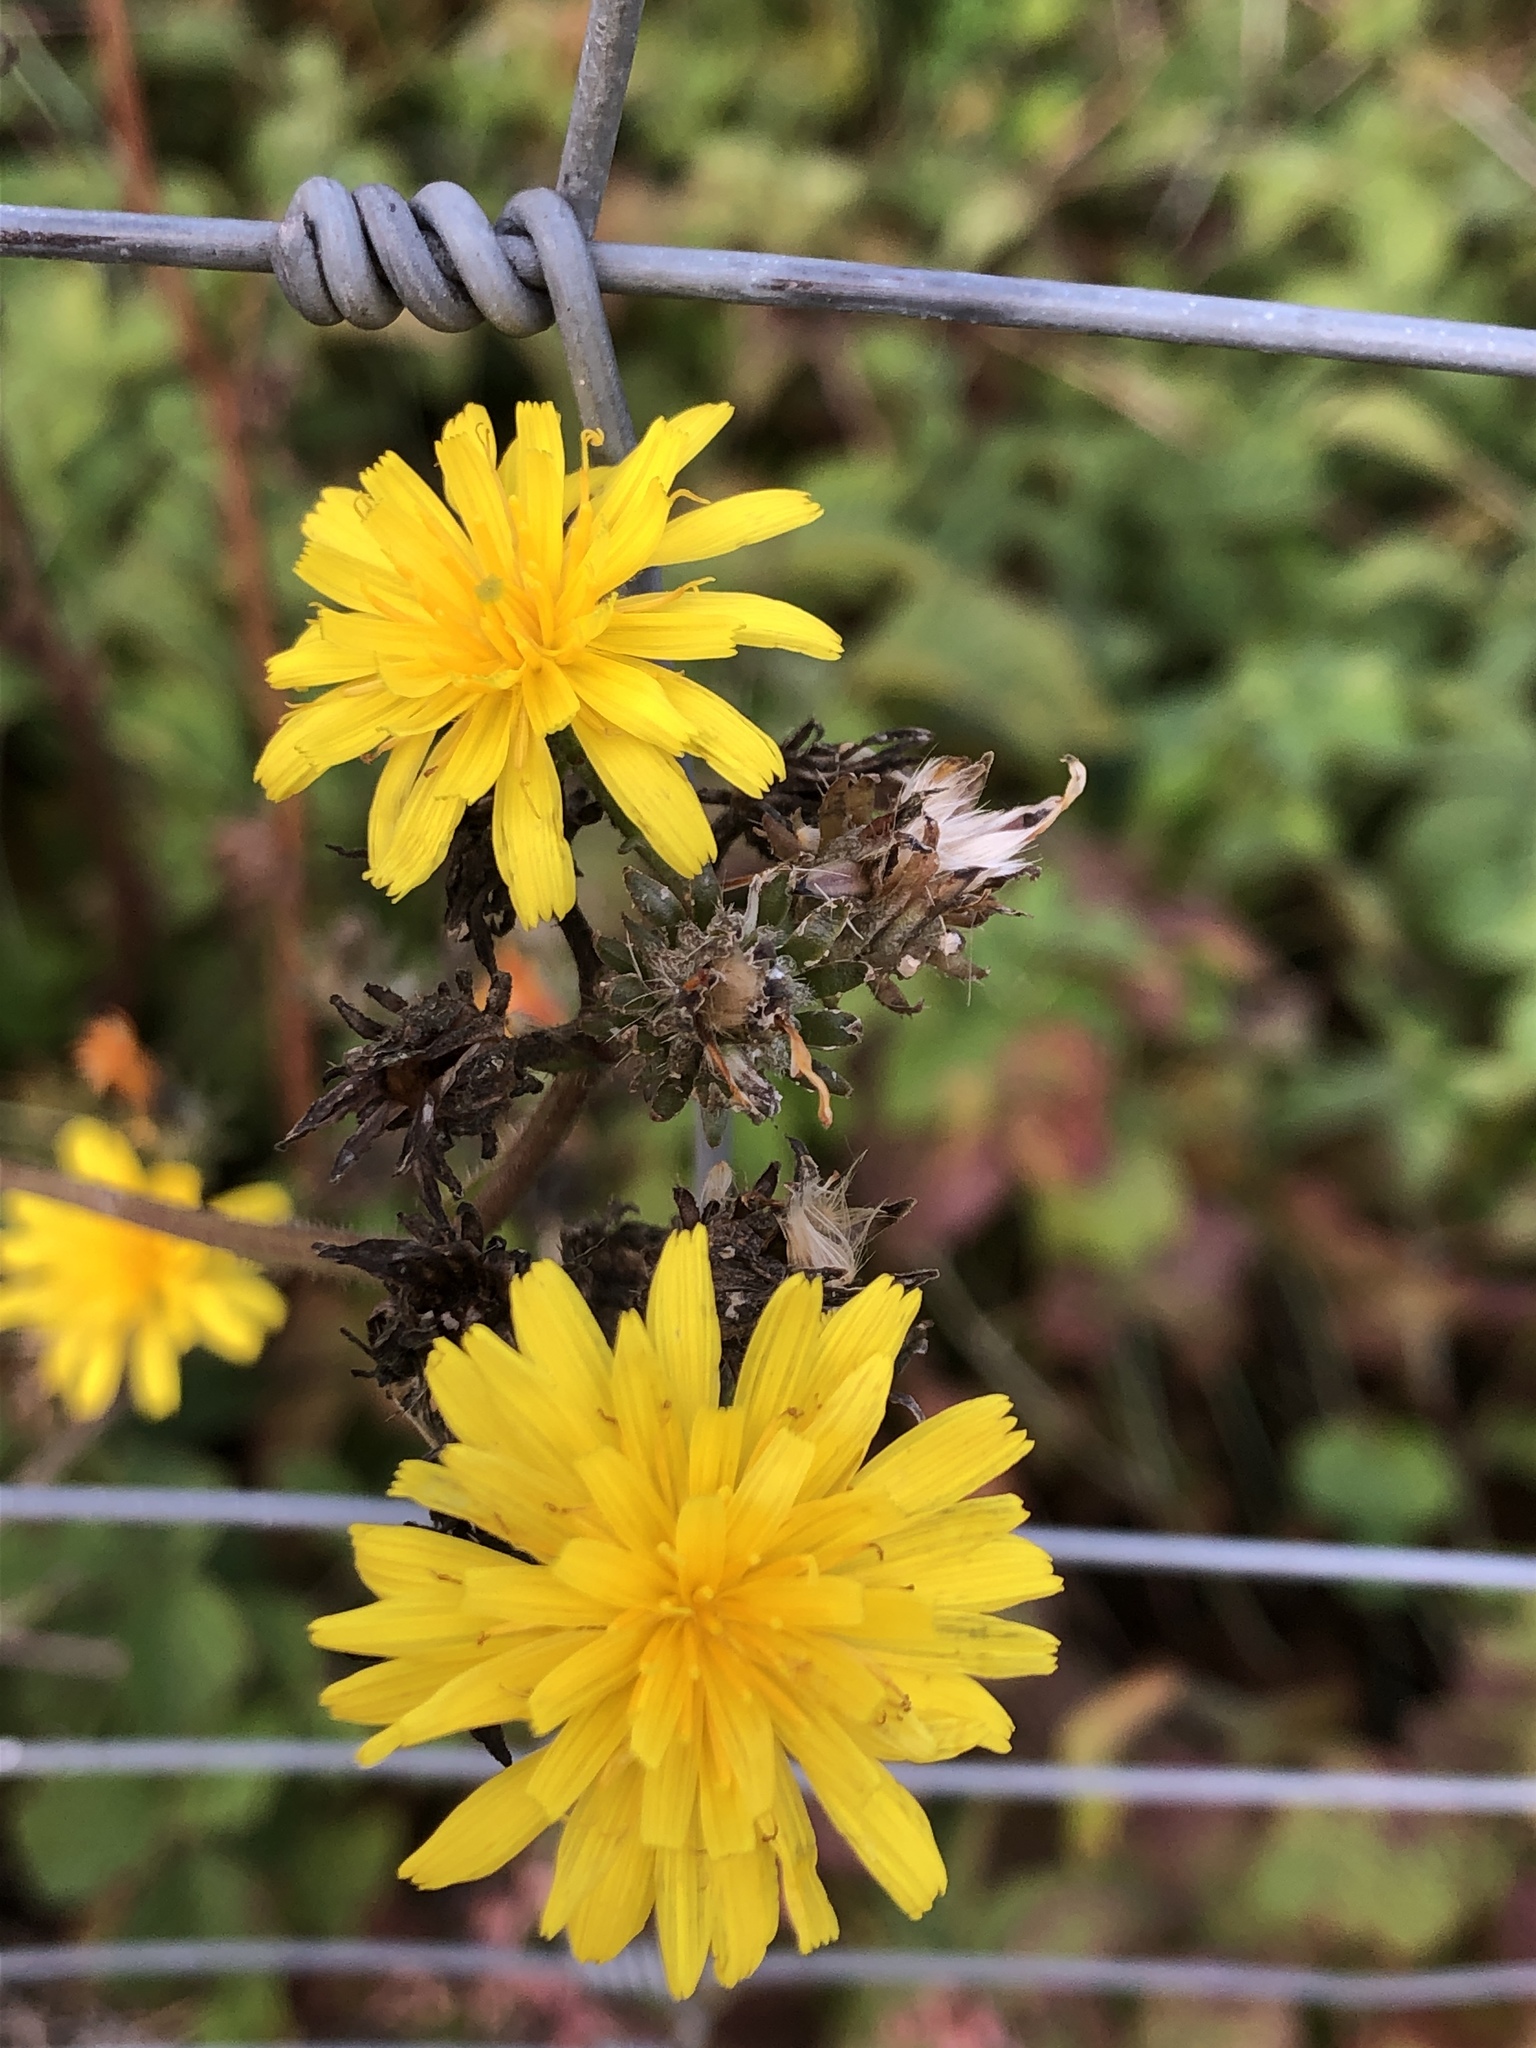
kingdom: Plantae
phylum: Tracheophyta
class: Magnoliopsida
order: Asterales
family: Asteraceae
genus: Picris
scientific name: Picris hieracioides
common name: Hawkweed oxtongue
